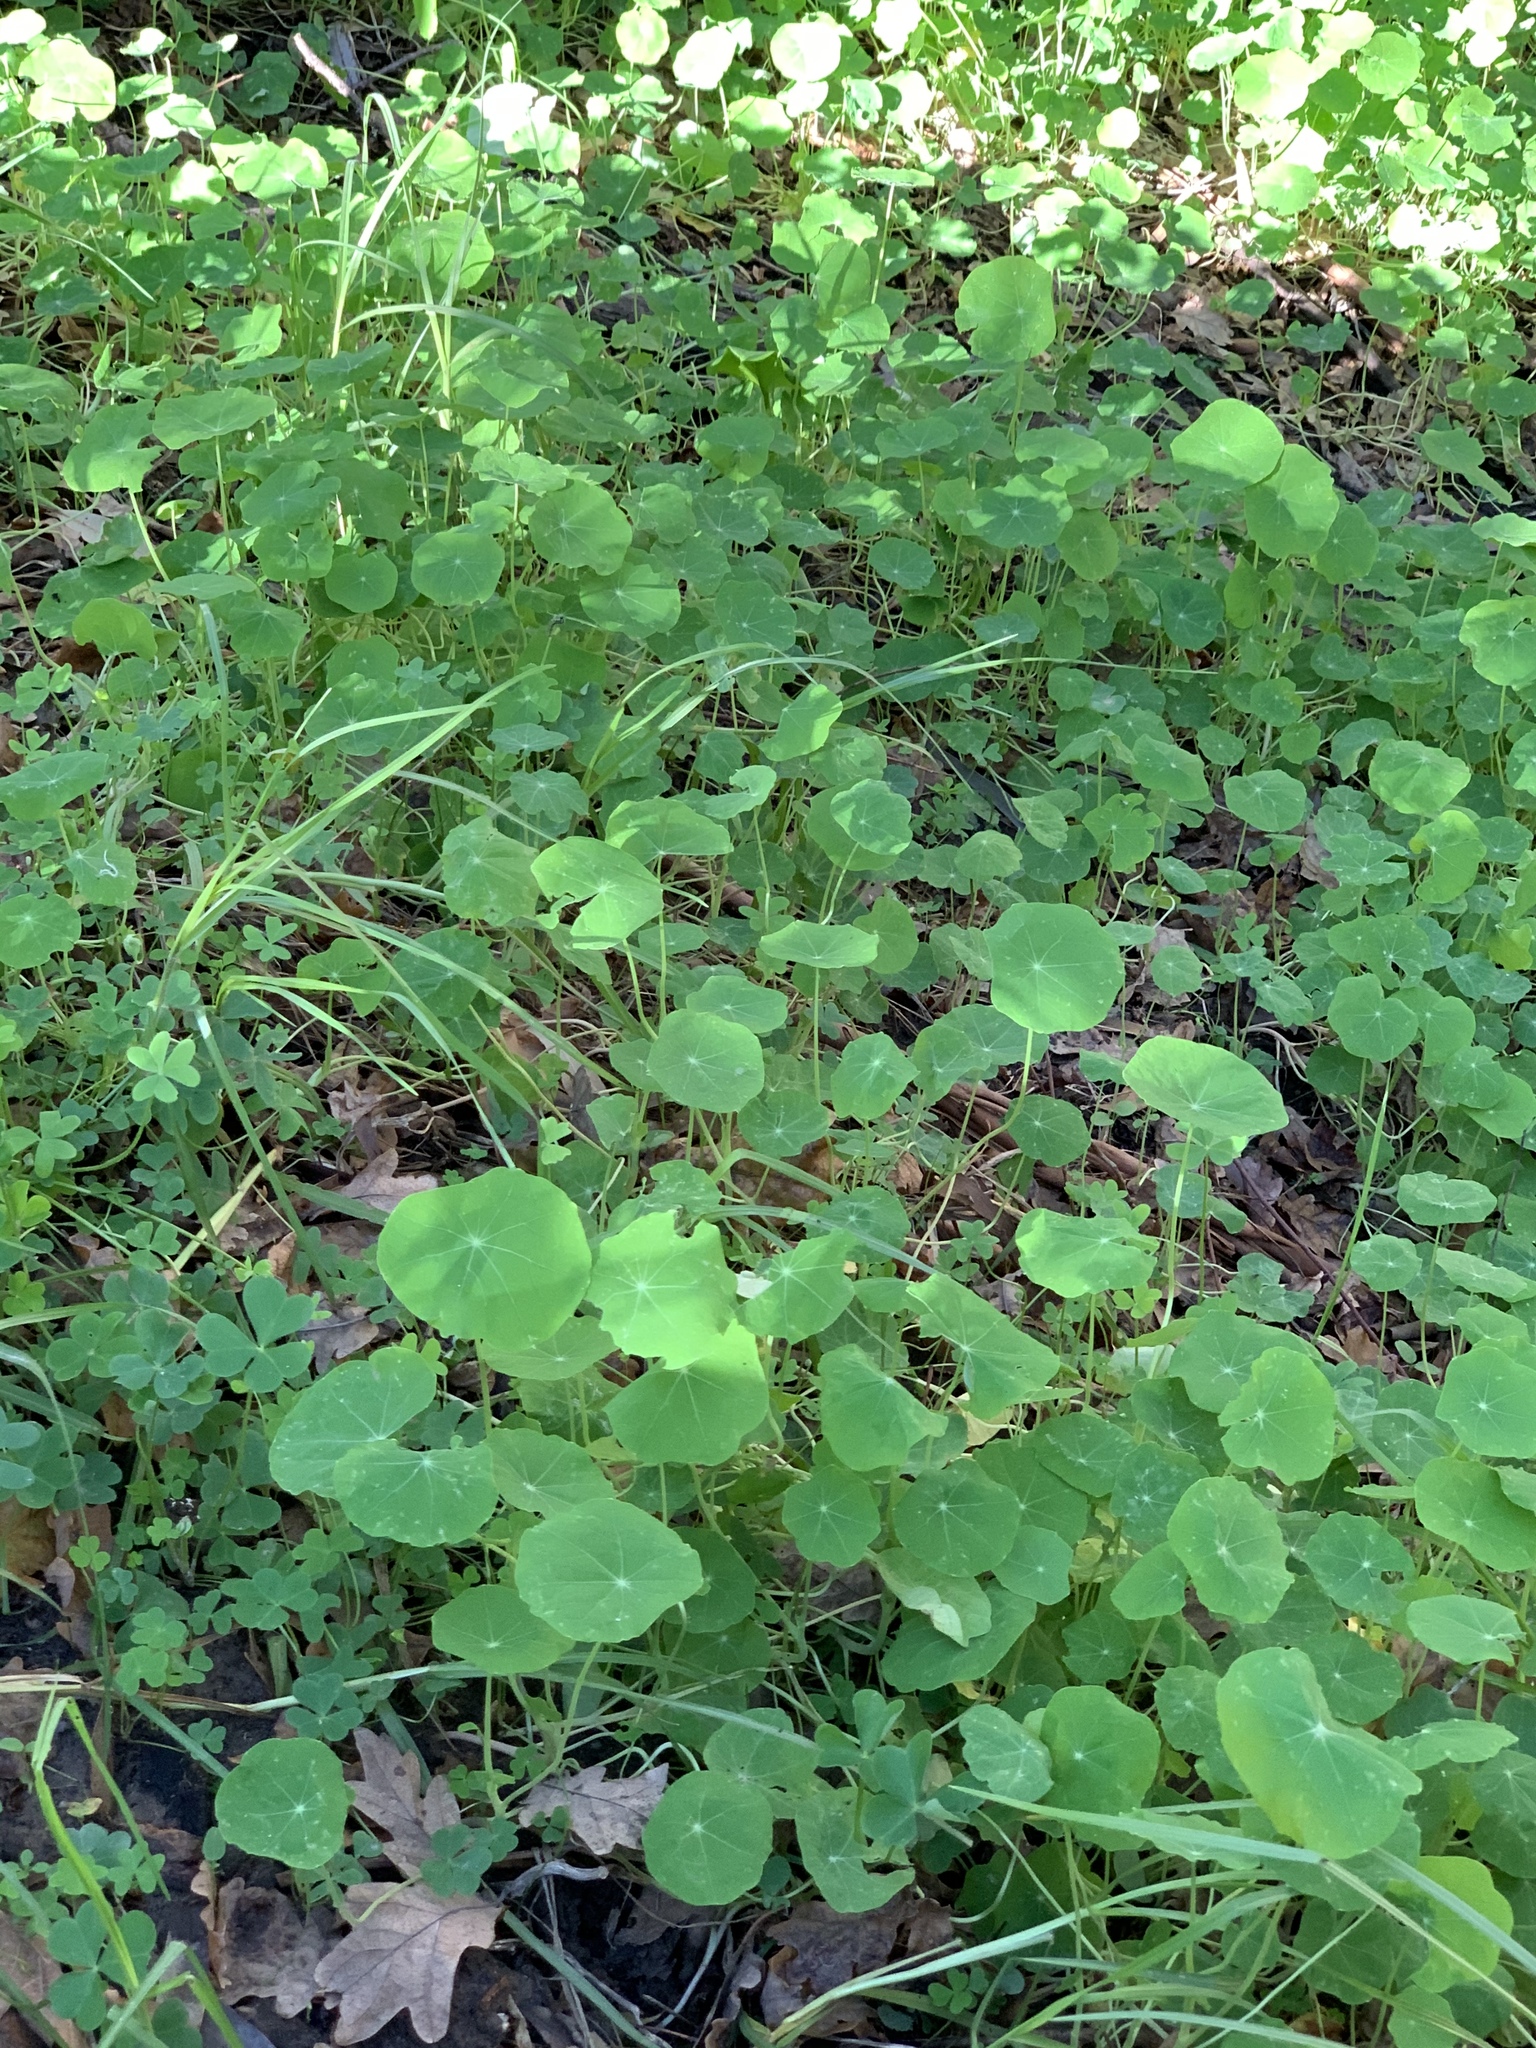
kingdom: Plantae
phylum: Tracheophyta
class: Magnoliopsida
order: Brassicales
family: Tropaeolaceae
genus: Tropaeolum
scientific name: Tropaeolum majus
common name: Nasturtium
